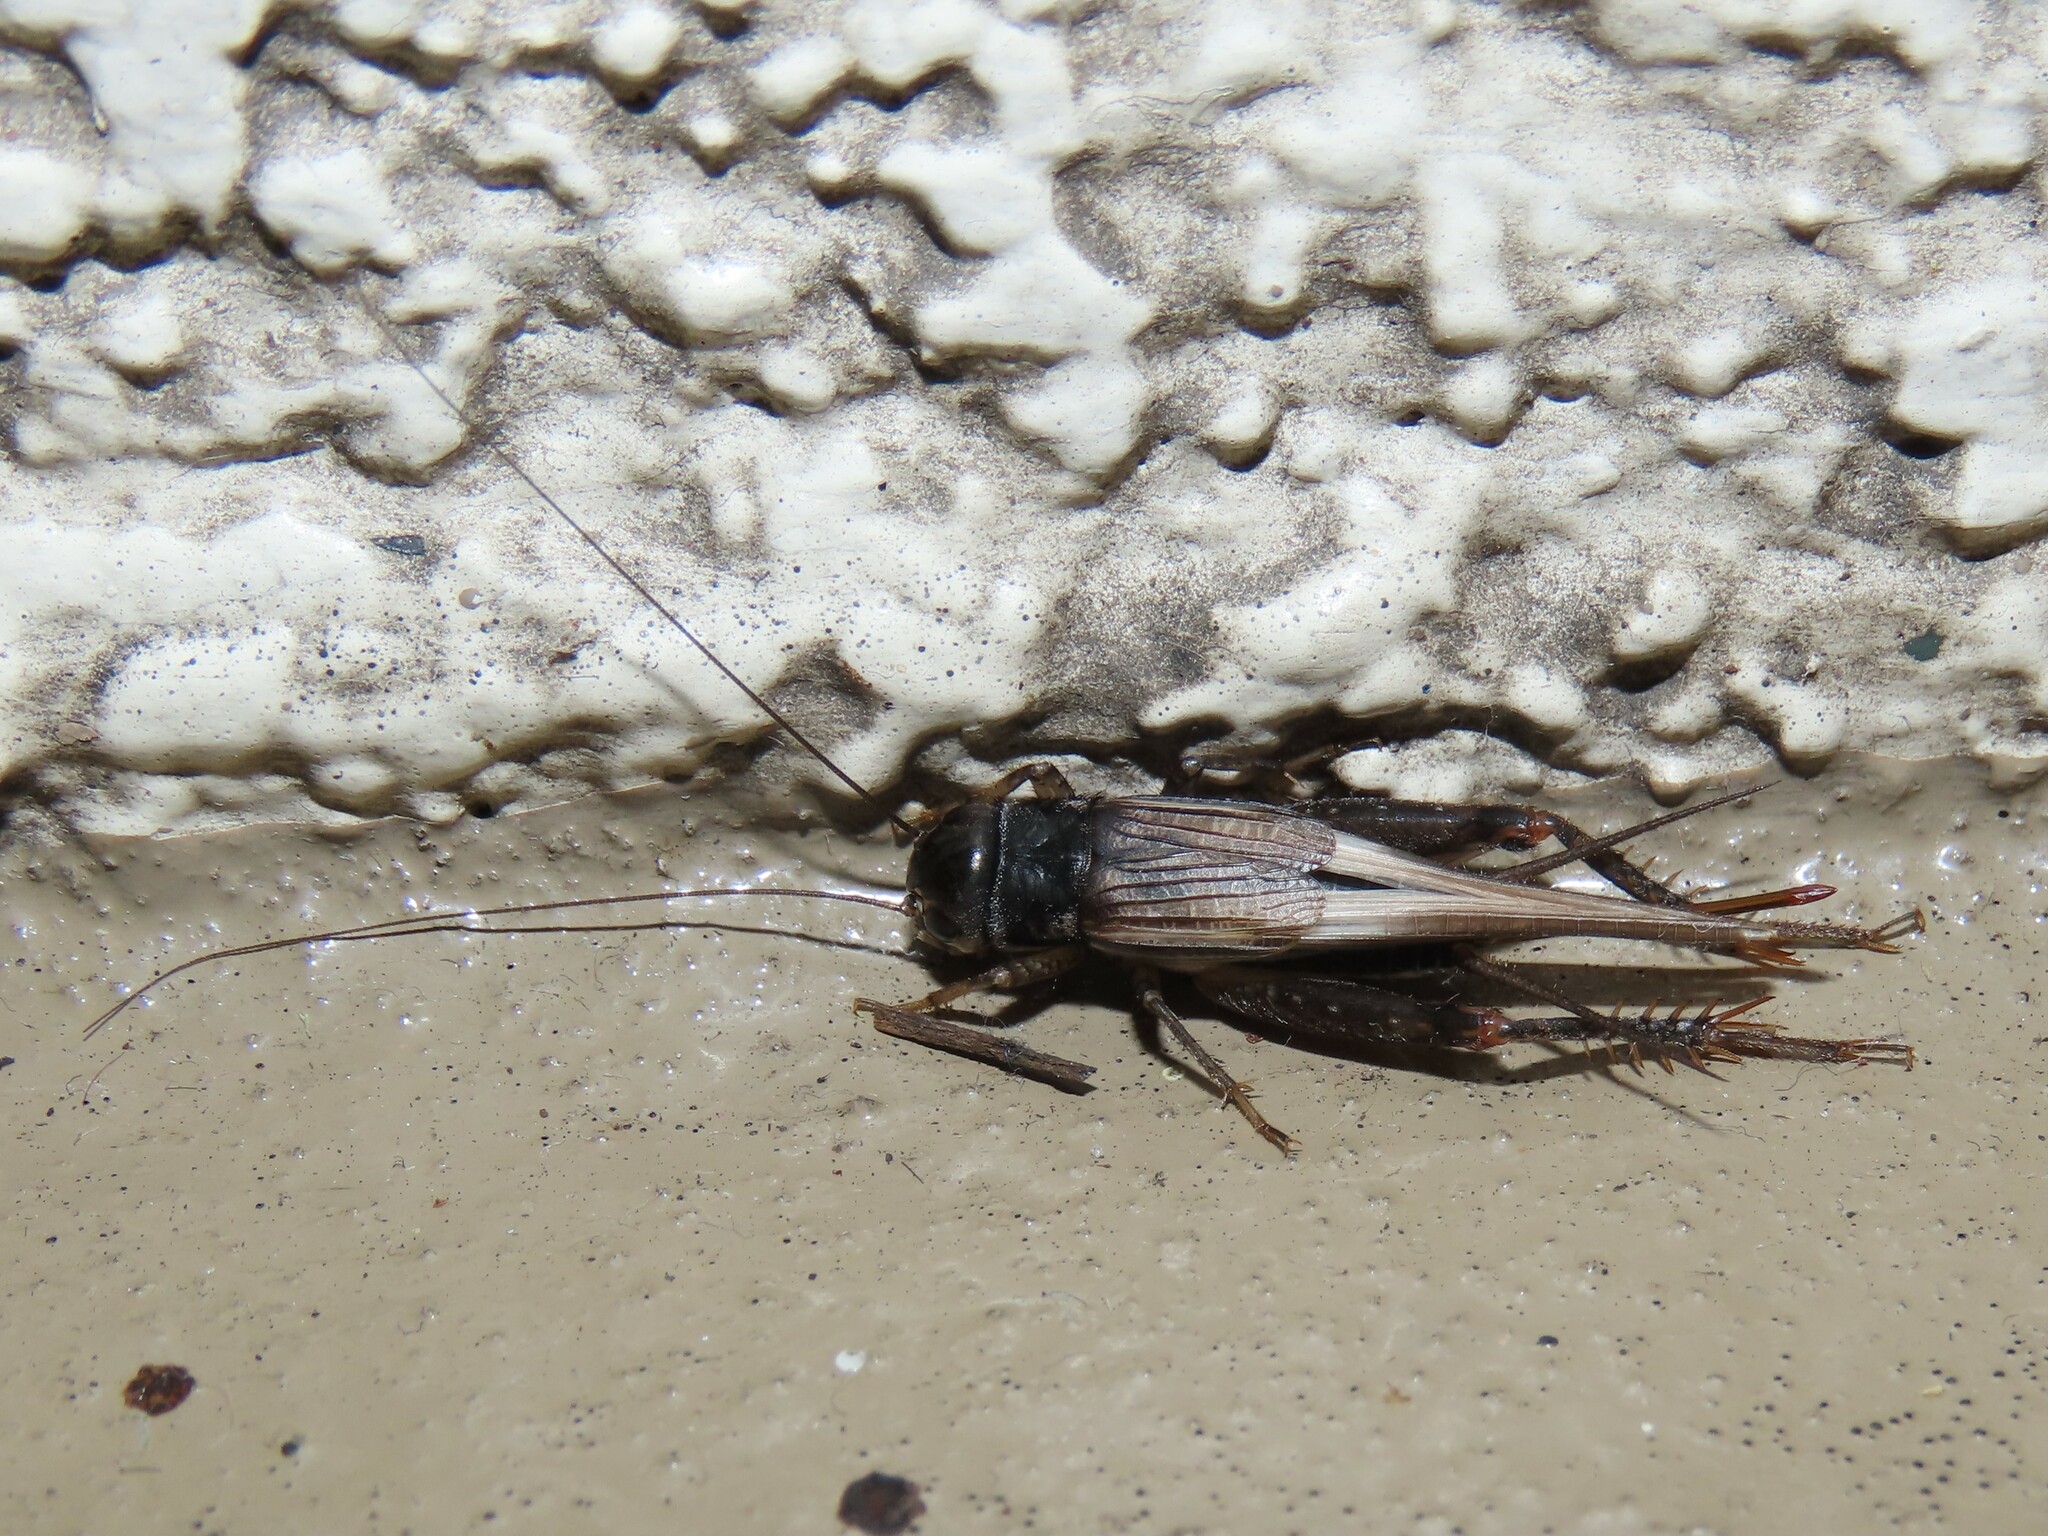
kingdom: Animalia
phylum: Arthropoda
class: Insecta
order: Orthoptera
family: Gryllidae
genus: Miogryllus
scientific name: Miogryllus verticalis
